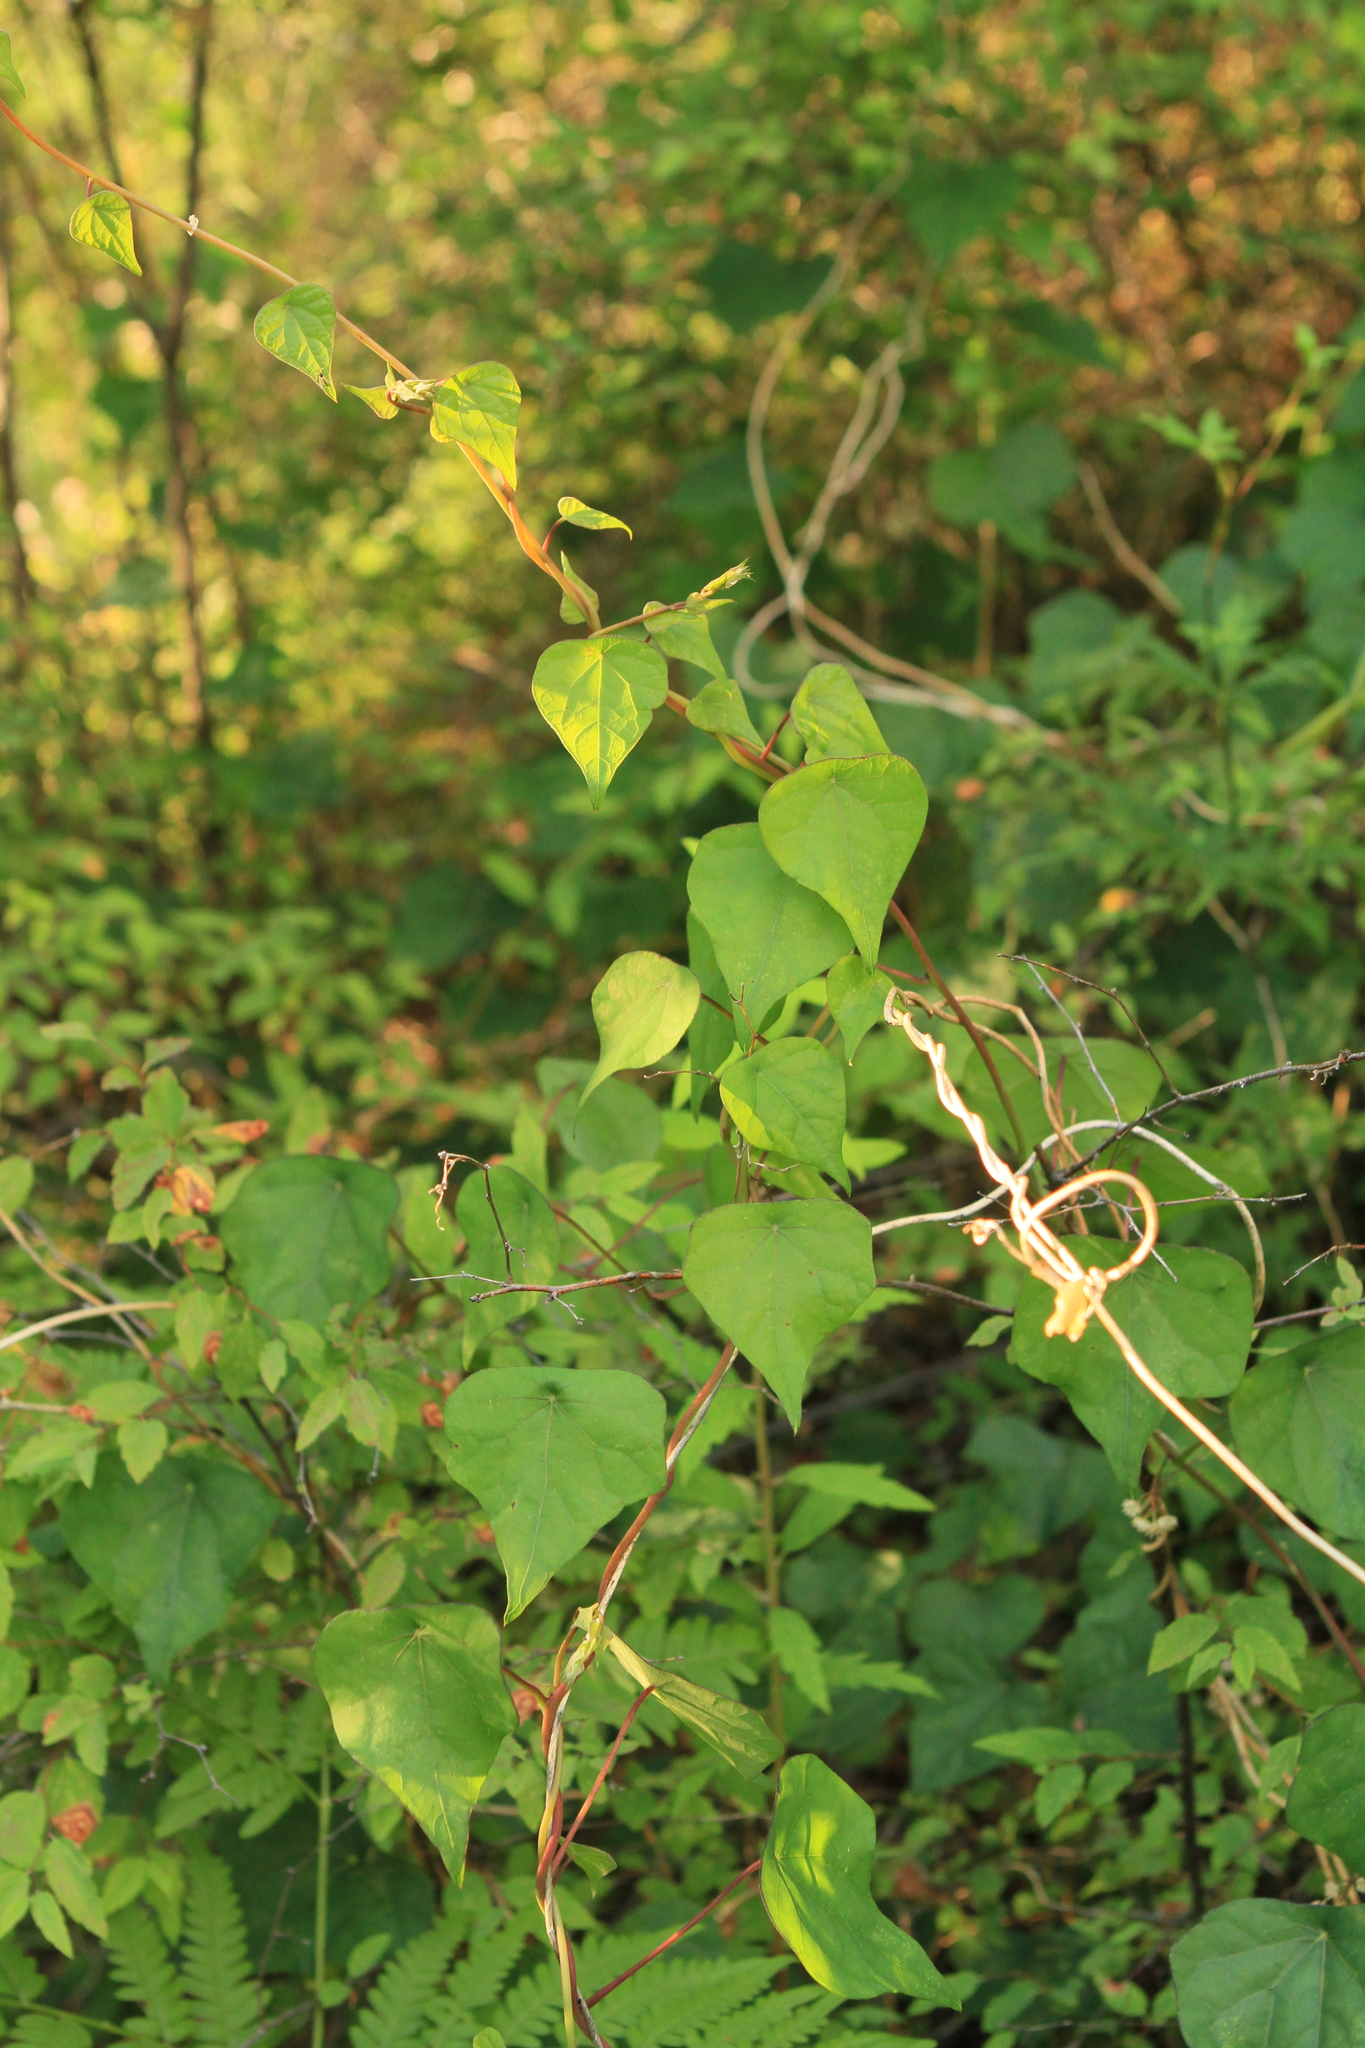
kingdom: Plantae
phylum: Tracheophyta
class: Magnoliopsida
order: Ranunculales
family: Menispermaceae
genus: Menispermum
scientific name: Menispermum dauricum
